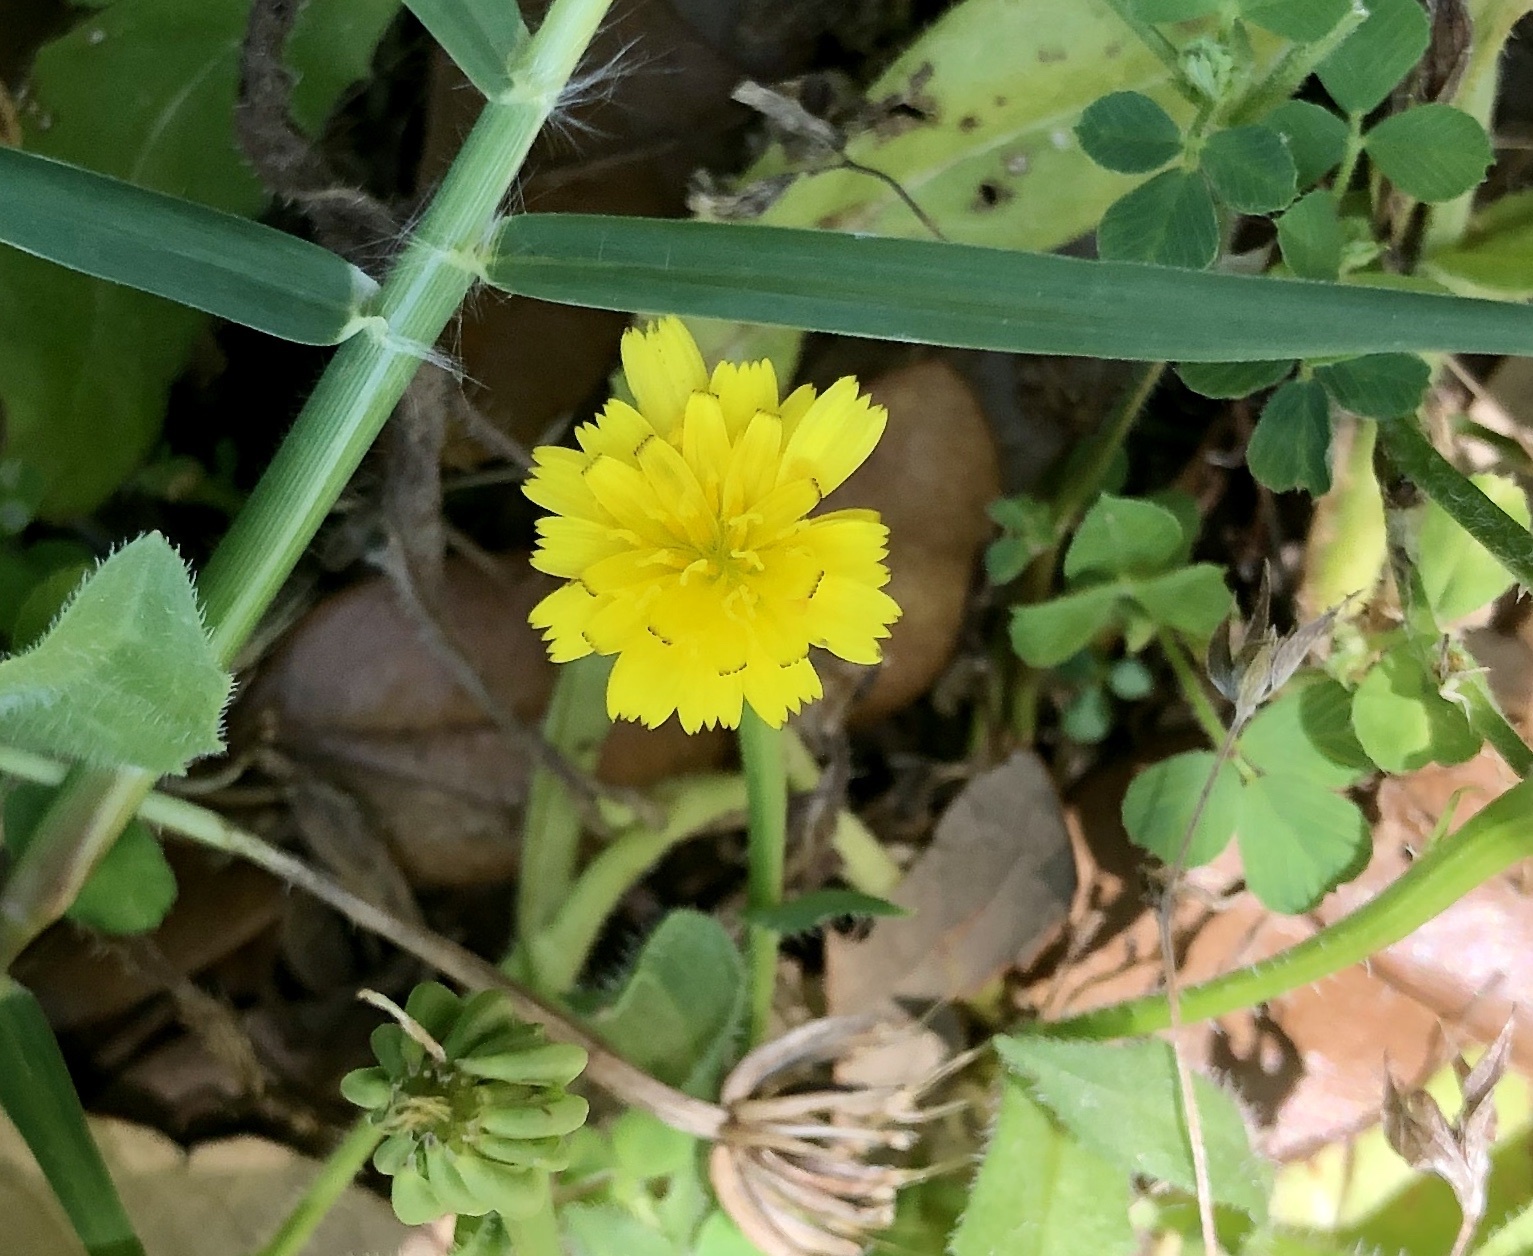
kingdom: Plantae
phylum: Tracheophyta
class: Magnoliopsida
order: Asterales
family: Asteraceae
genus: Hedypnois
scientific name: Hedypnois rhagadioloides
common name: Cretan weed
